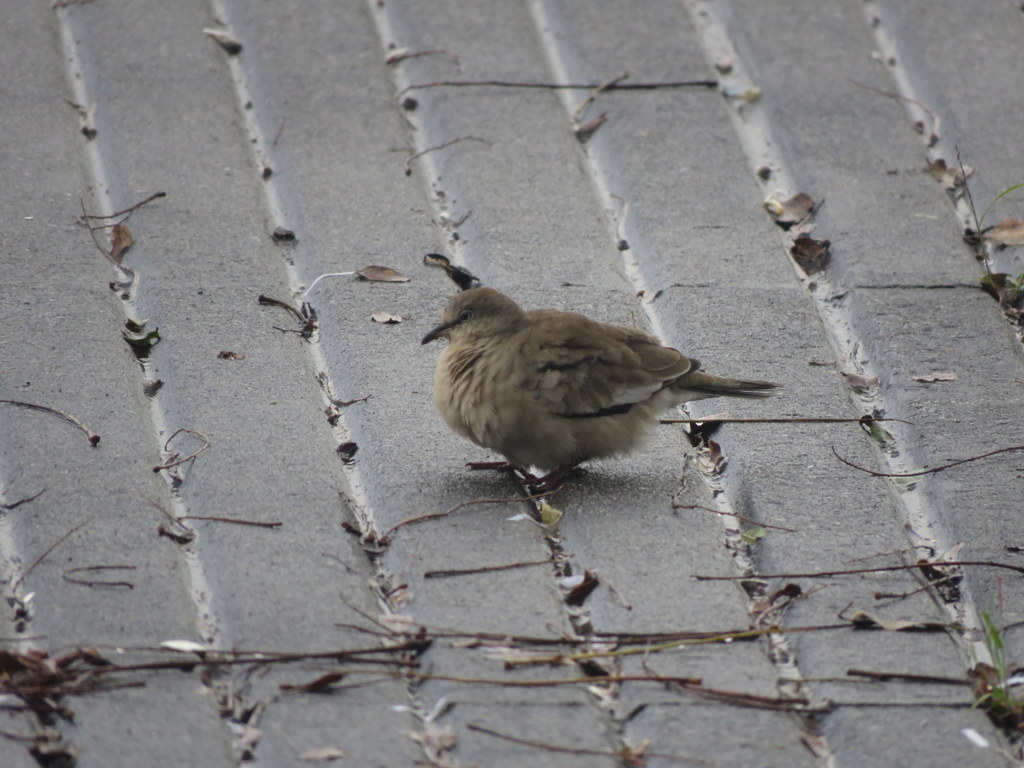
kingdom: Animalia
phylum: Chordata
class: Aves
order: Columbiformes
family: Columbidae
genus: Columbina
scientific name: Columbina picui
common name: Picui ground dove
